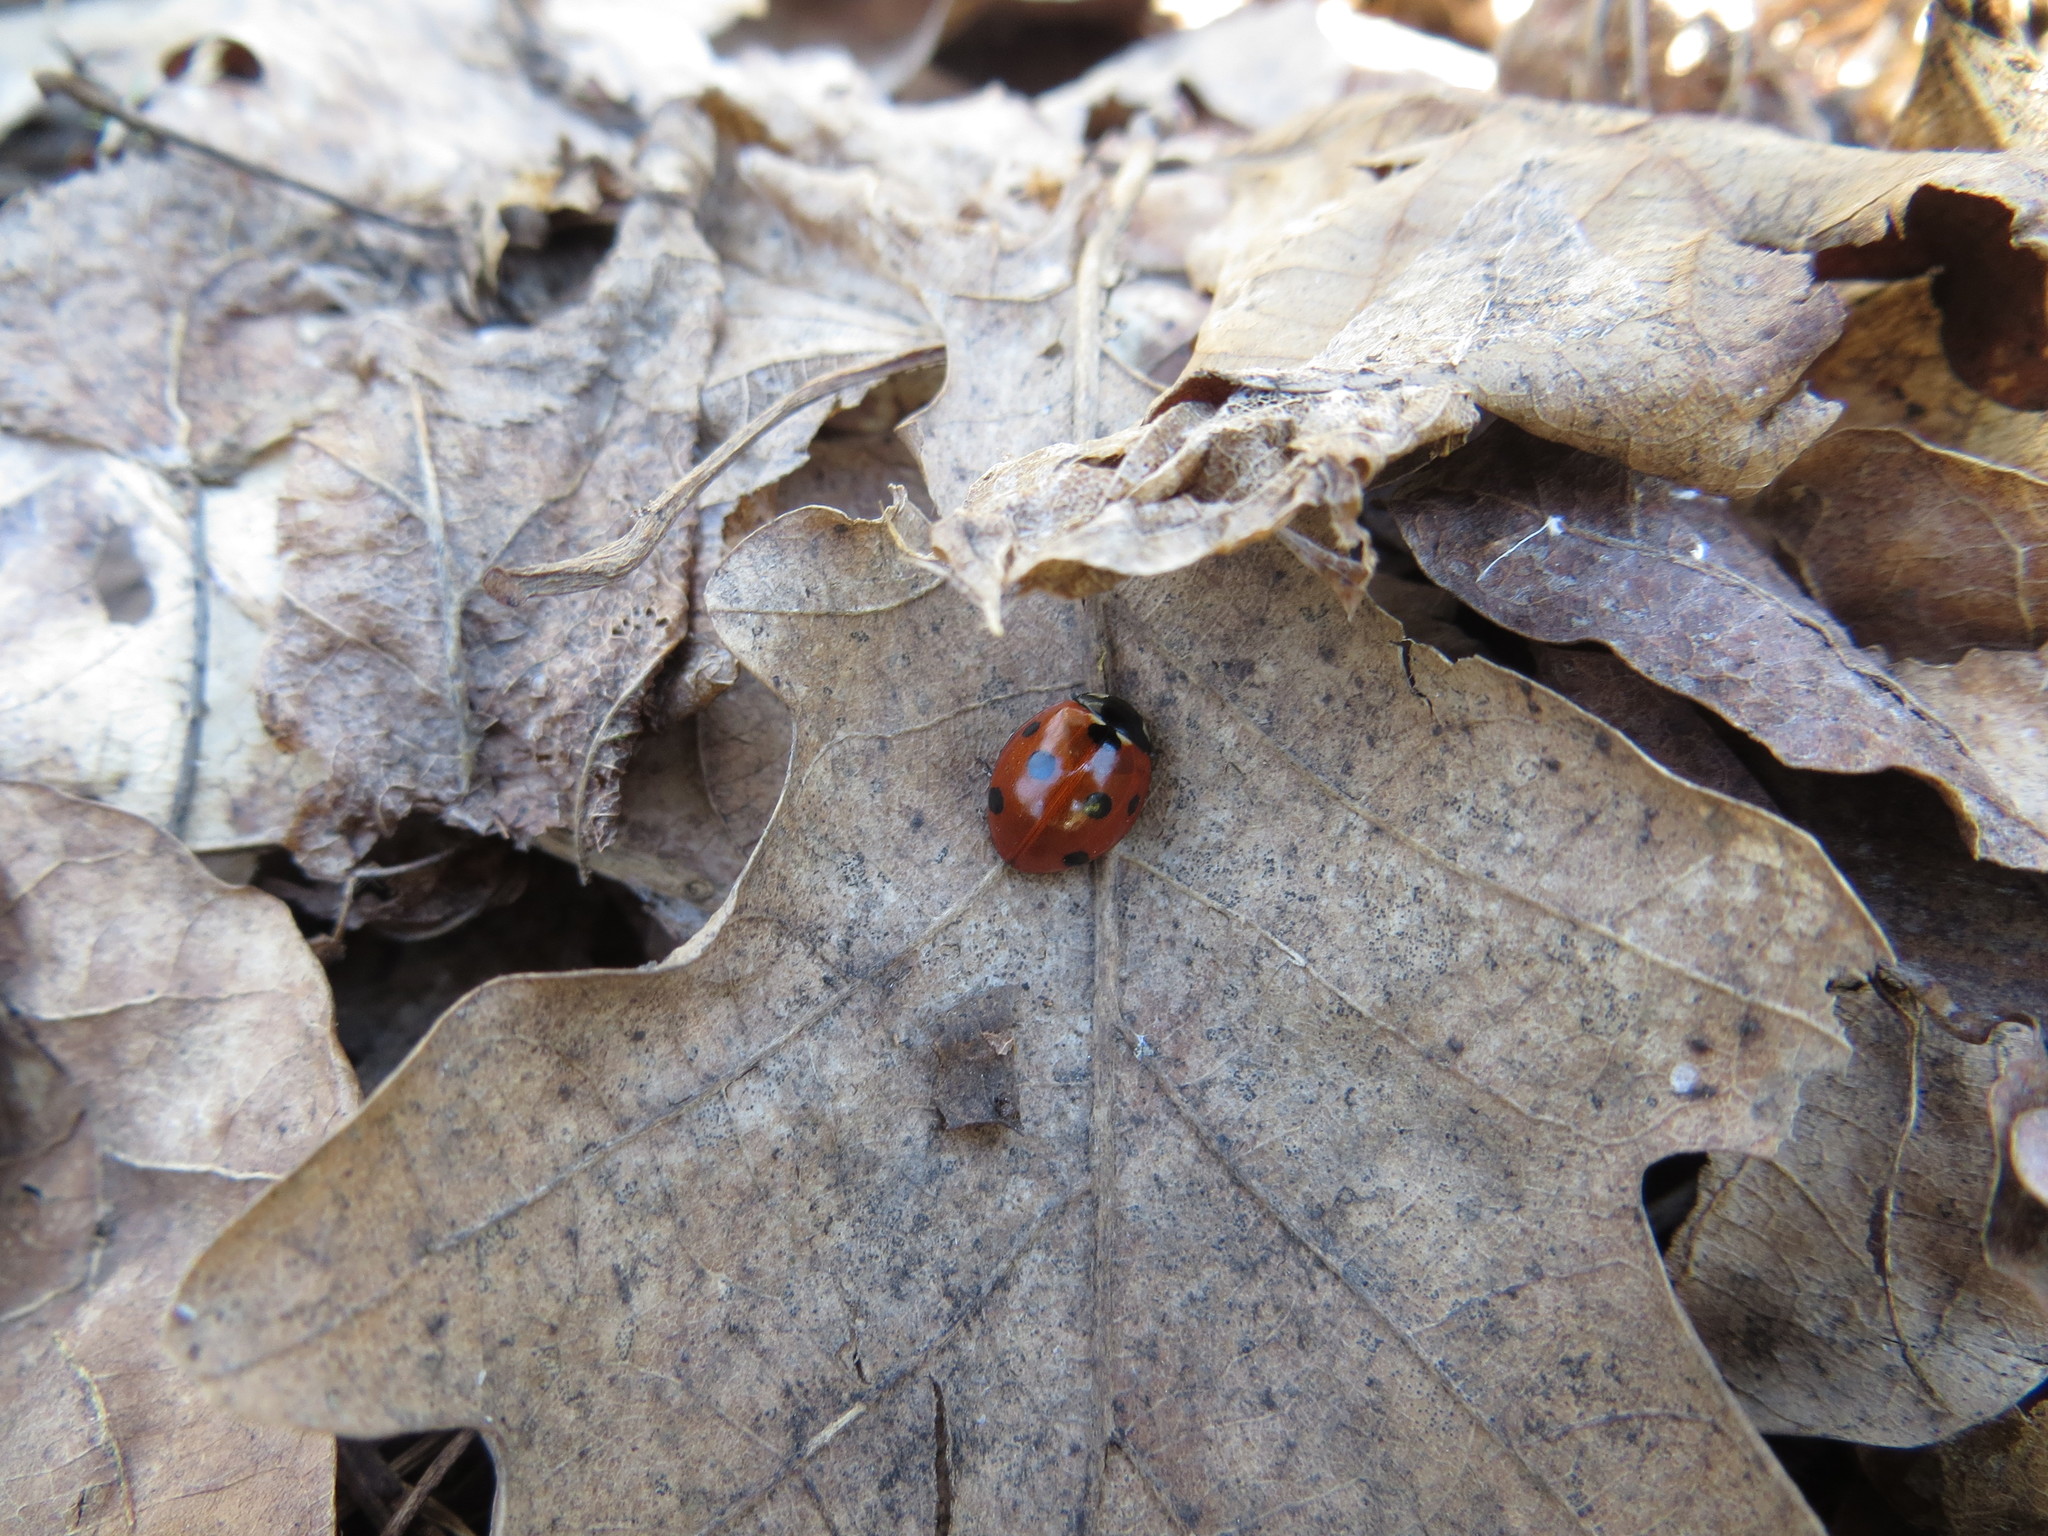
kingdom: Animalia
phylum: Arthropoda
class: Insecta
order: Coleoptera
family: Coccinellidae
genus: Coccinella
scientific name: Coccinella septempunctata
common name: Sevenspotted lady beetle
